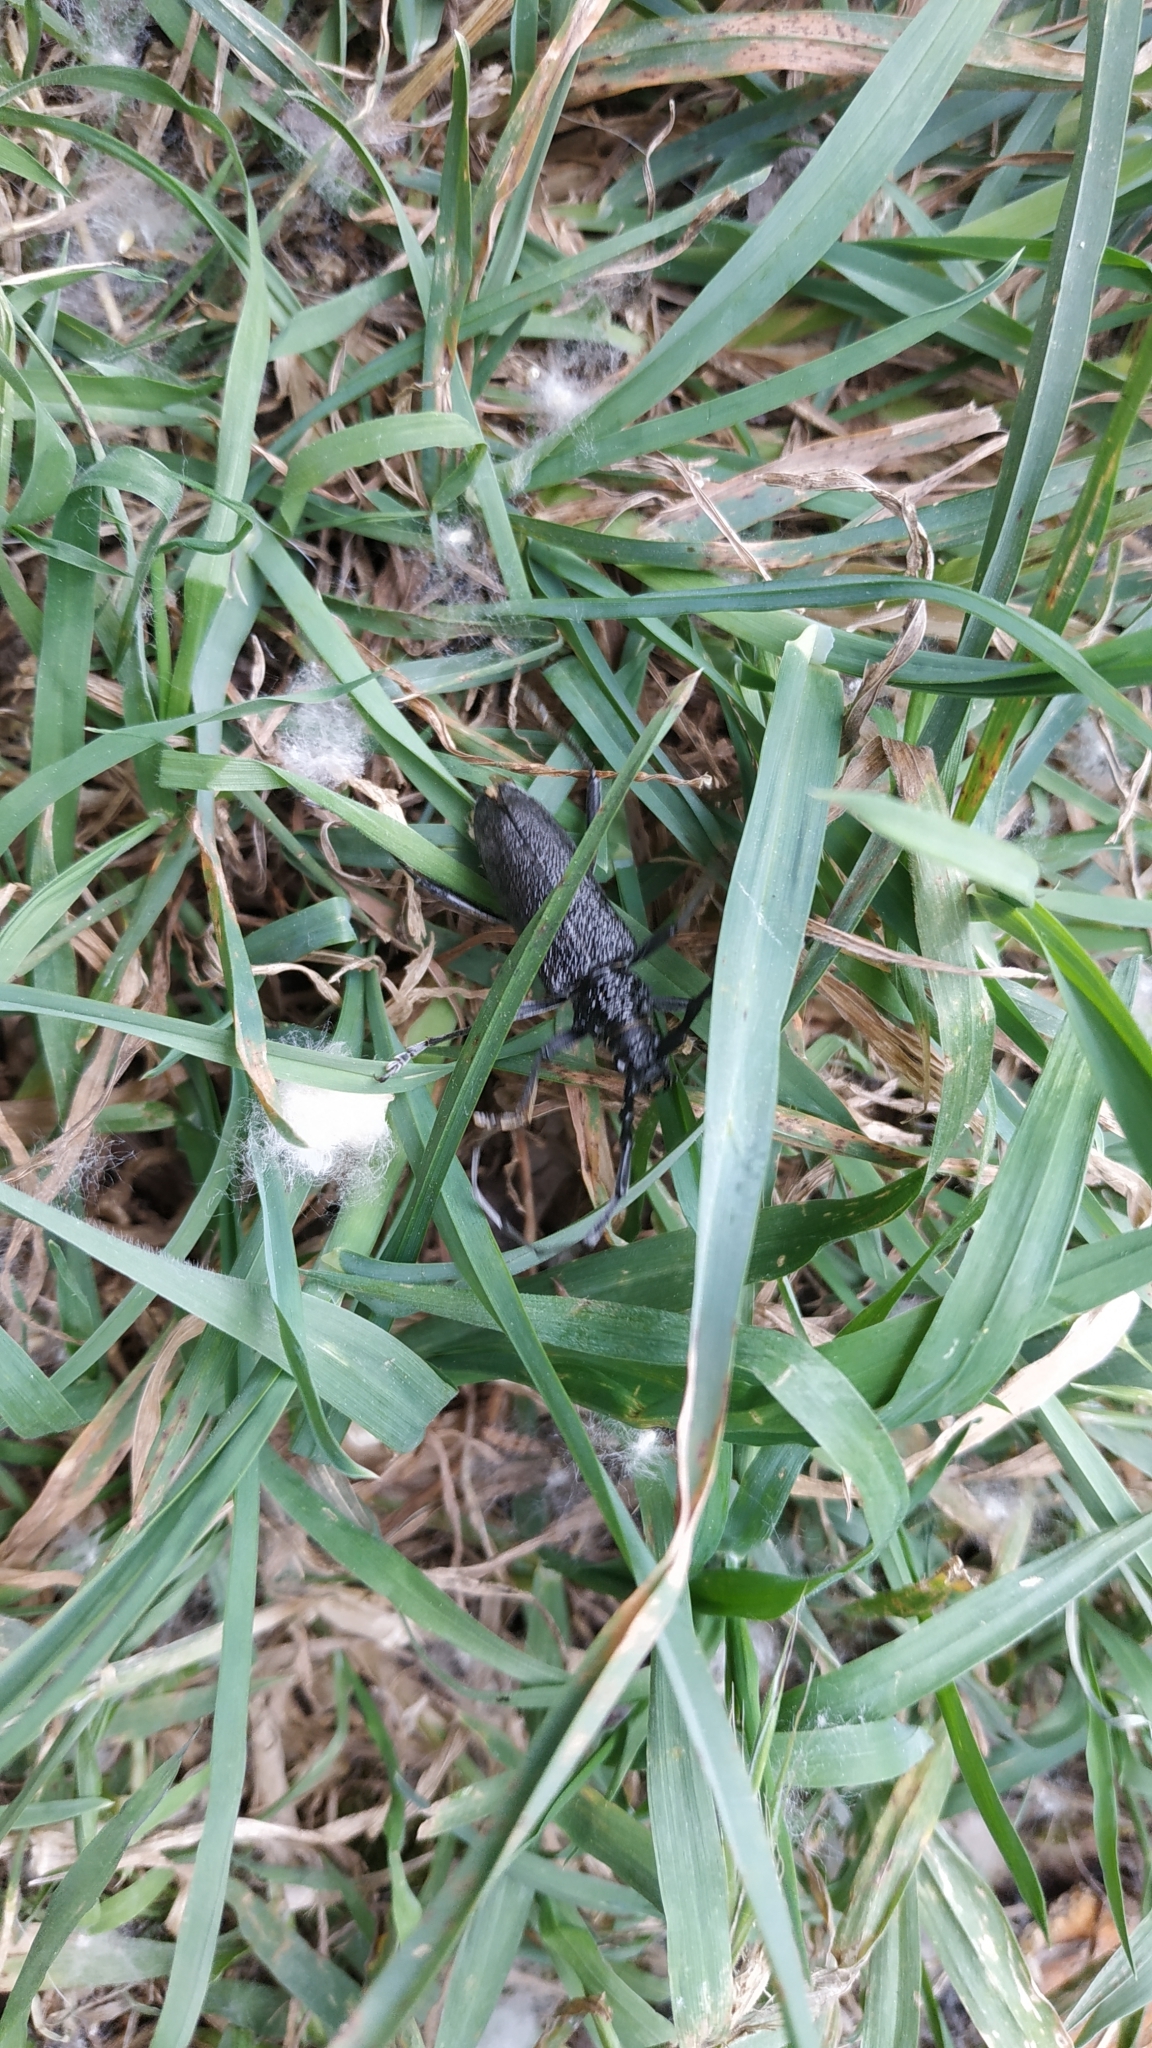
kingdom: Animalia
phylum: Arthropoda
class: Insecta
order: Coleoptera
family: Cerambycidae
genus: Cerambyx
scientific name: Cerambyx scopolii
